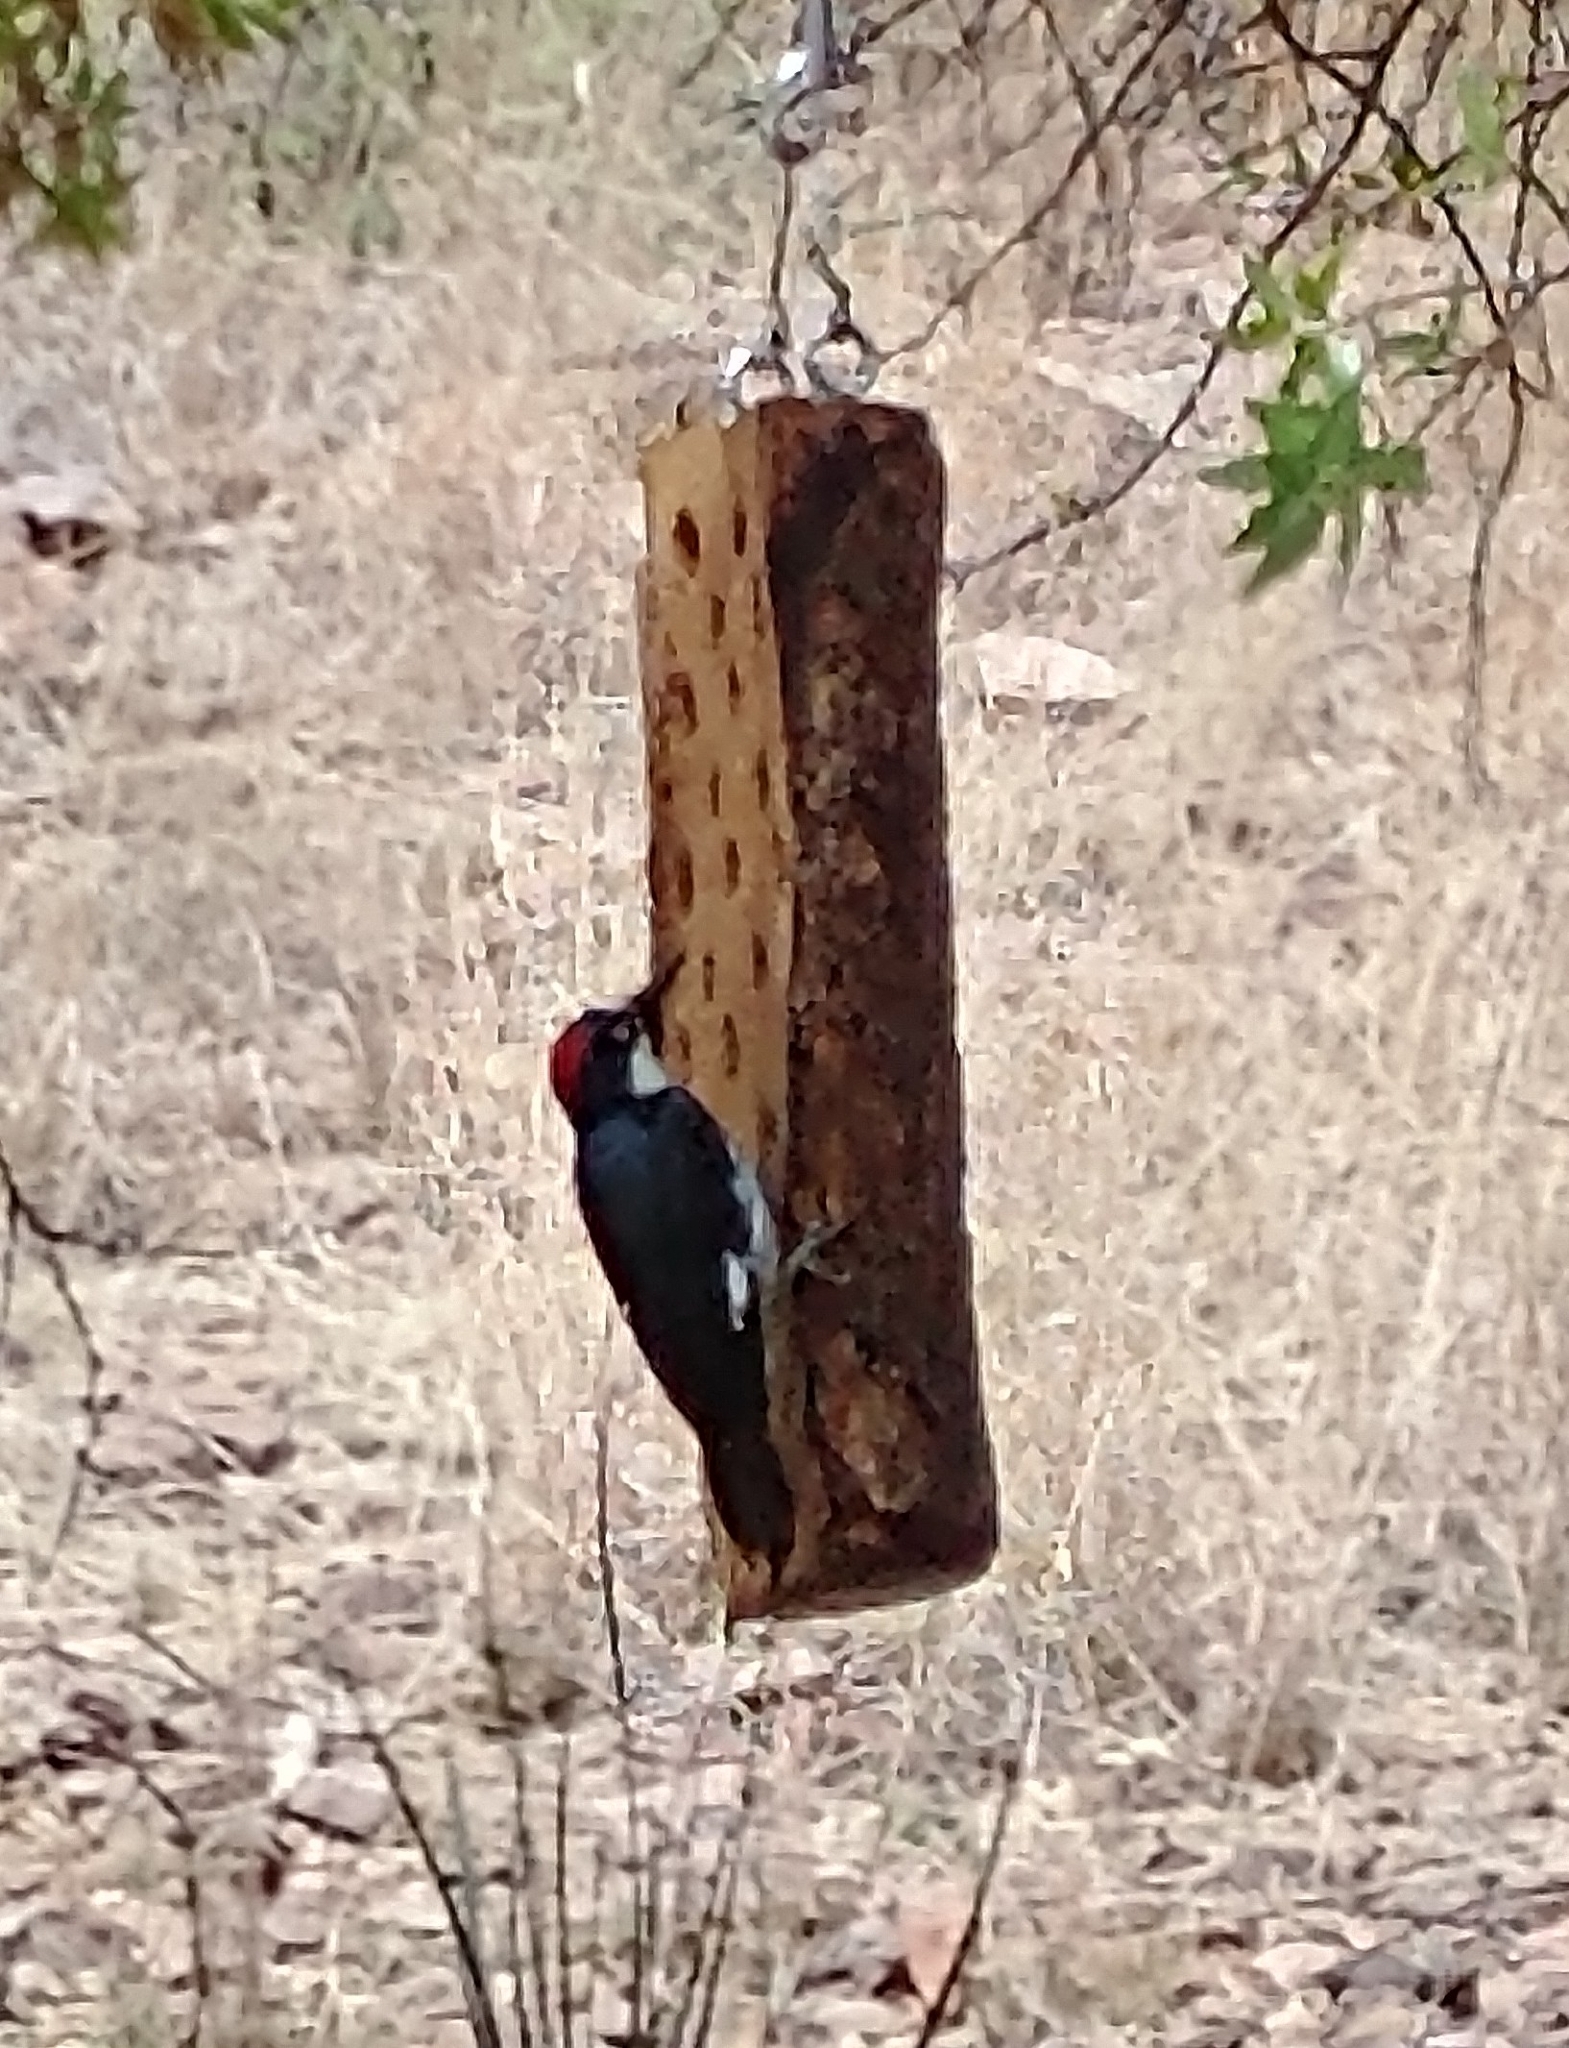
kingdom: Animalia
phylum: Chordata
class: Aves
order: Piciformes
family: Picidae
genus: Melanerpes
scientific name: Melanerpes formicivorus
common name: Acorn woodpecker
